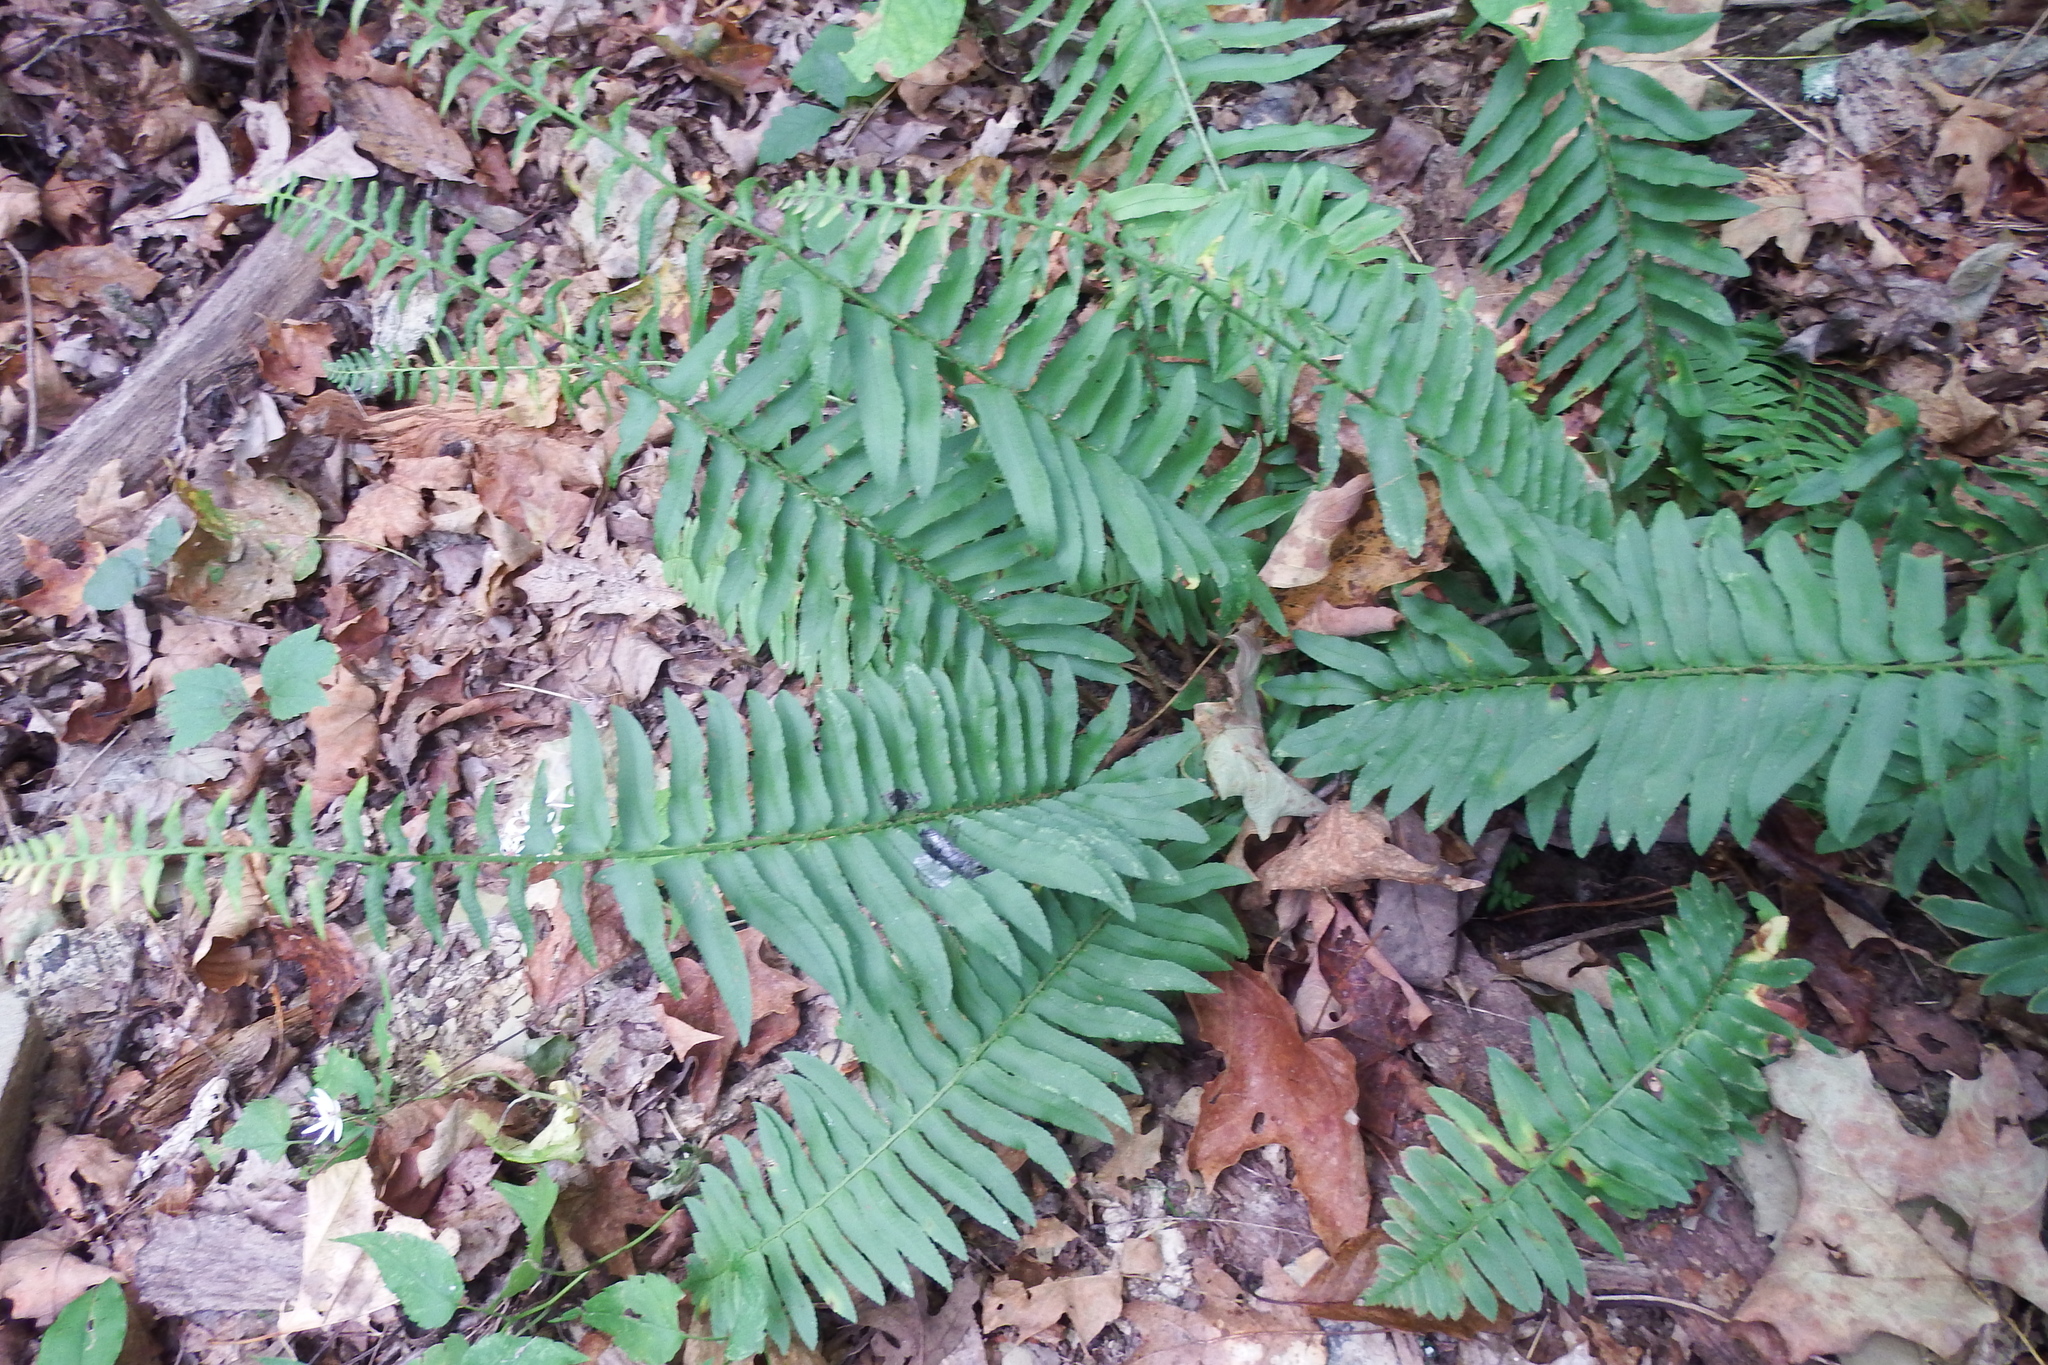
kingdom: Plantae
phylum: Tracheophyta
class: Polypodiopsida
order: Polypodiales
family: Dryopteridaceae
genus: Polystichum
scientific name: Polystichum acrostichoides
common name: Christmas fern
